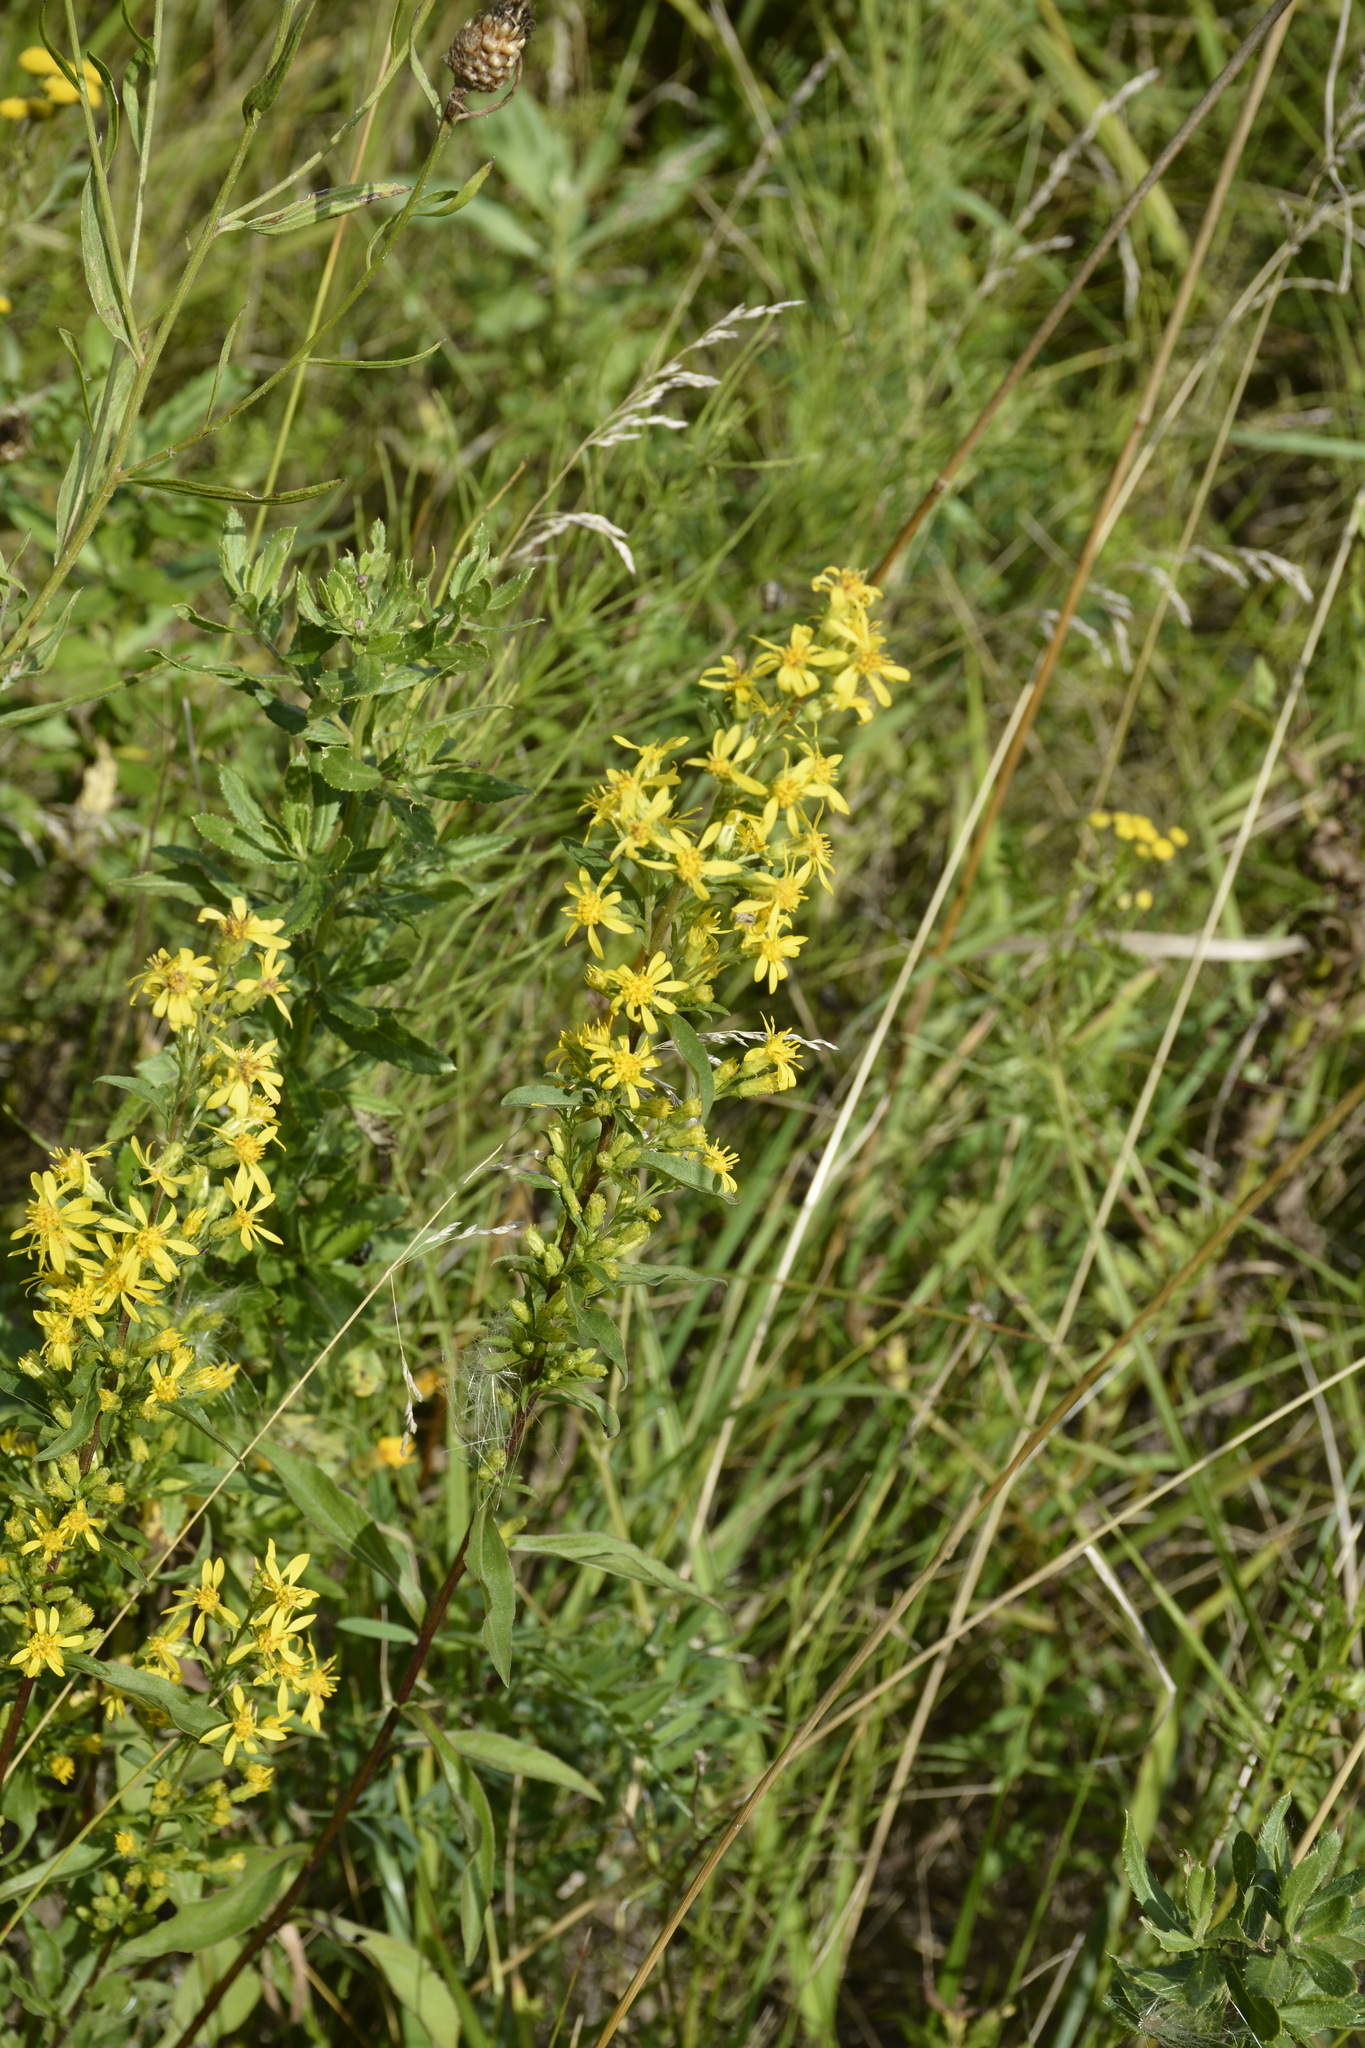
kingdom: Plantae
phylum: Tracheophyta
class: Magnoliopsida
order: Asterales
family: Asteraceae
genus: Solidago
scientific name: Solidago virgaurea
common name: Goldenrod
